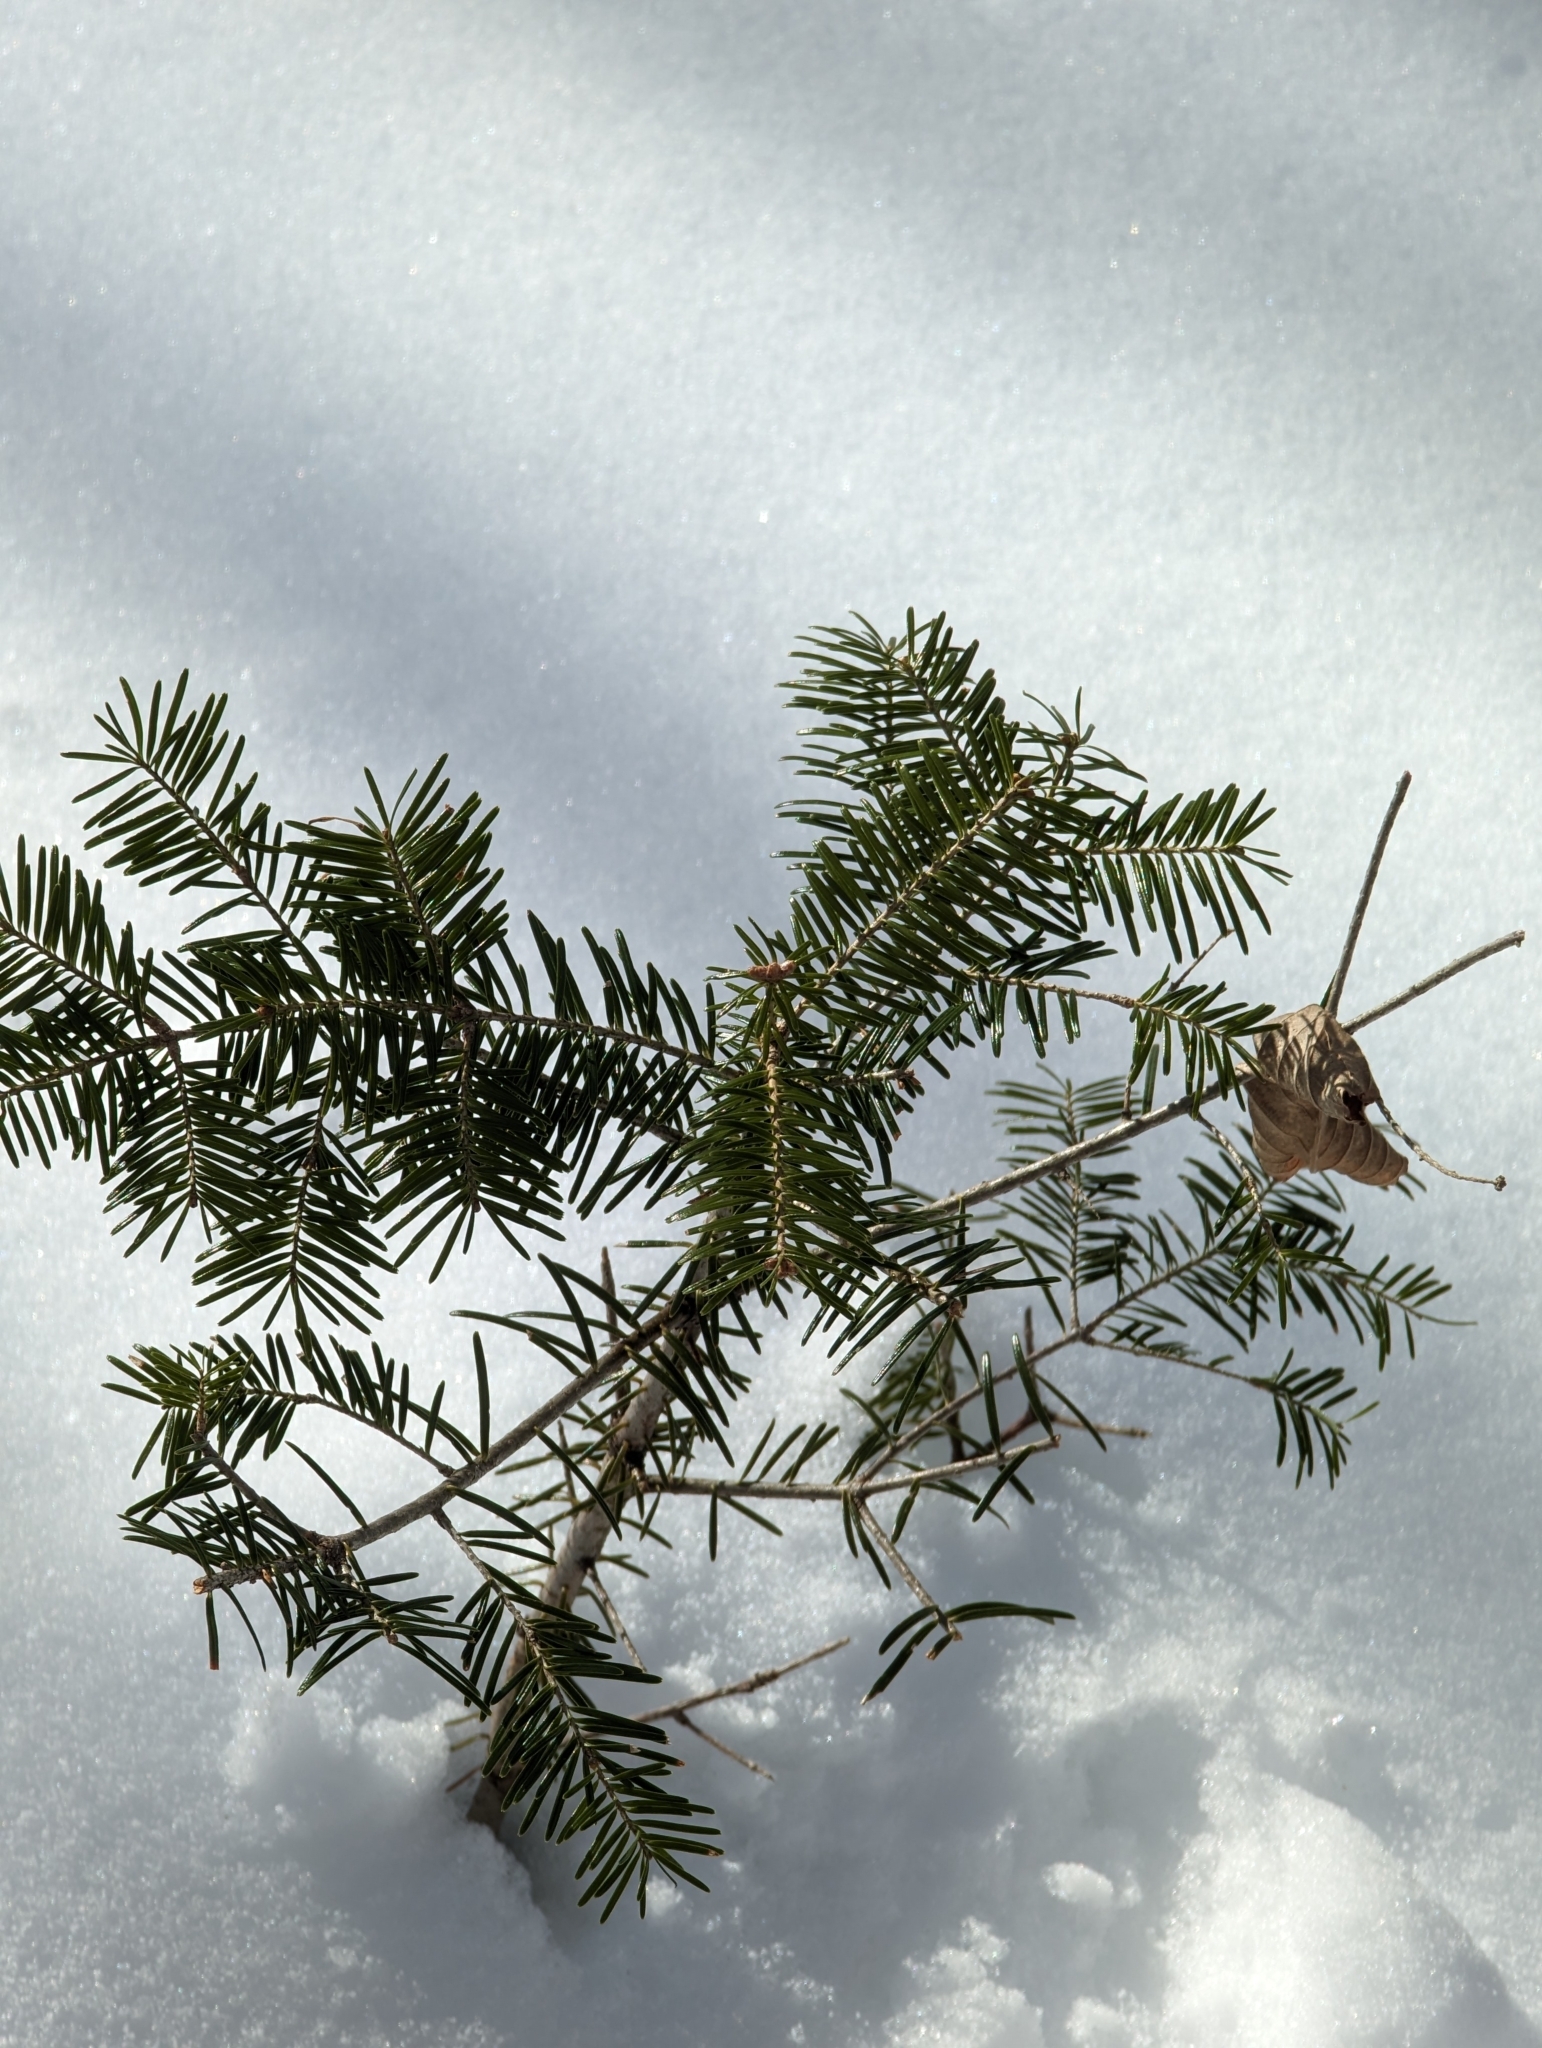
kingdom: Plantae
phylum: Tracheophyta
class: Pinopsida
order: Pinales
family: Pinaceae
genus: Abies
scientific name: Abies balsamea
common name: Balsam fir
